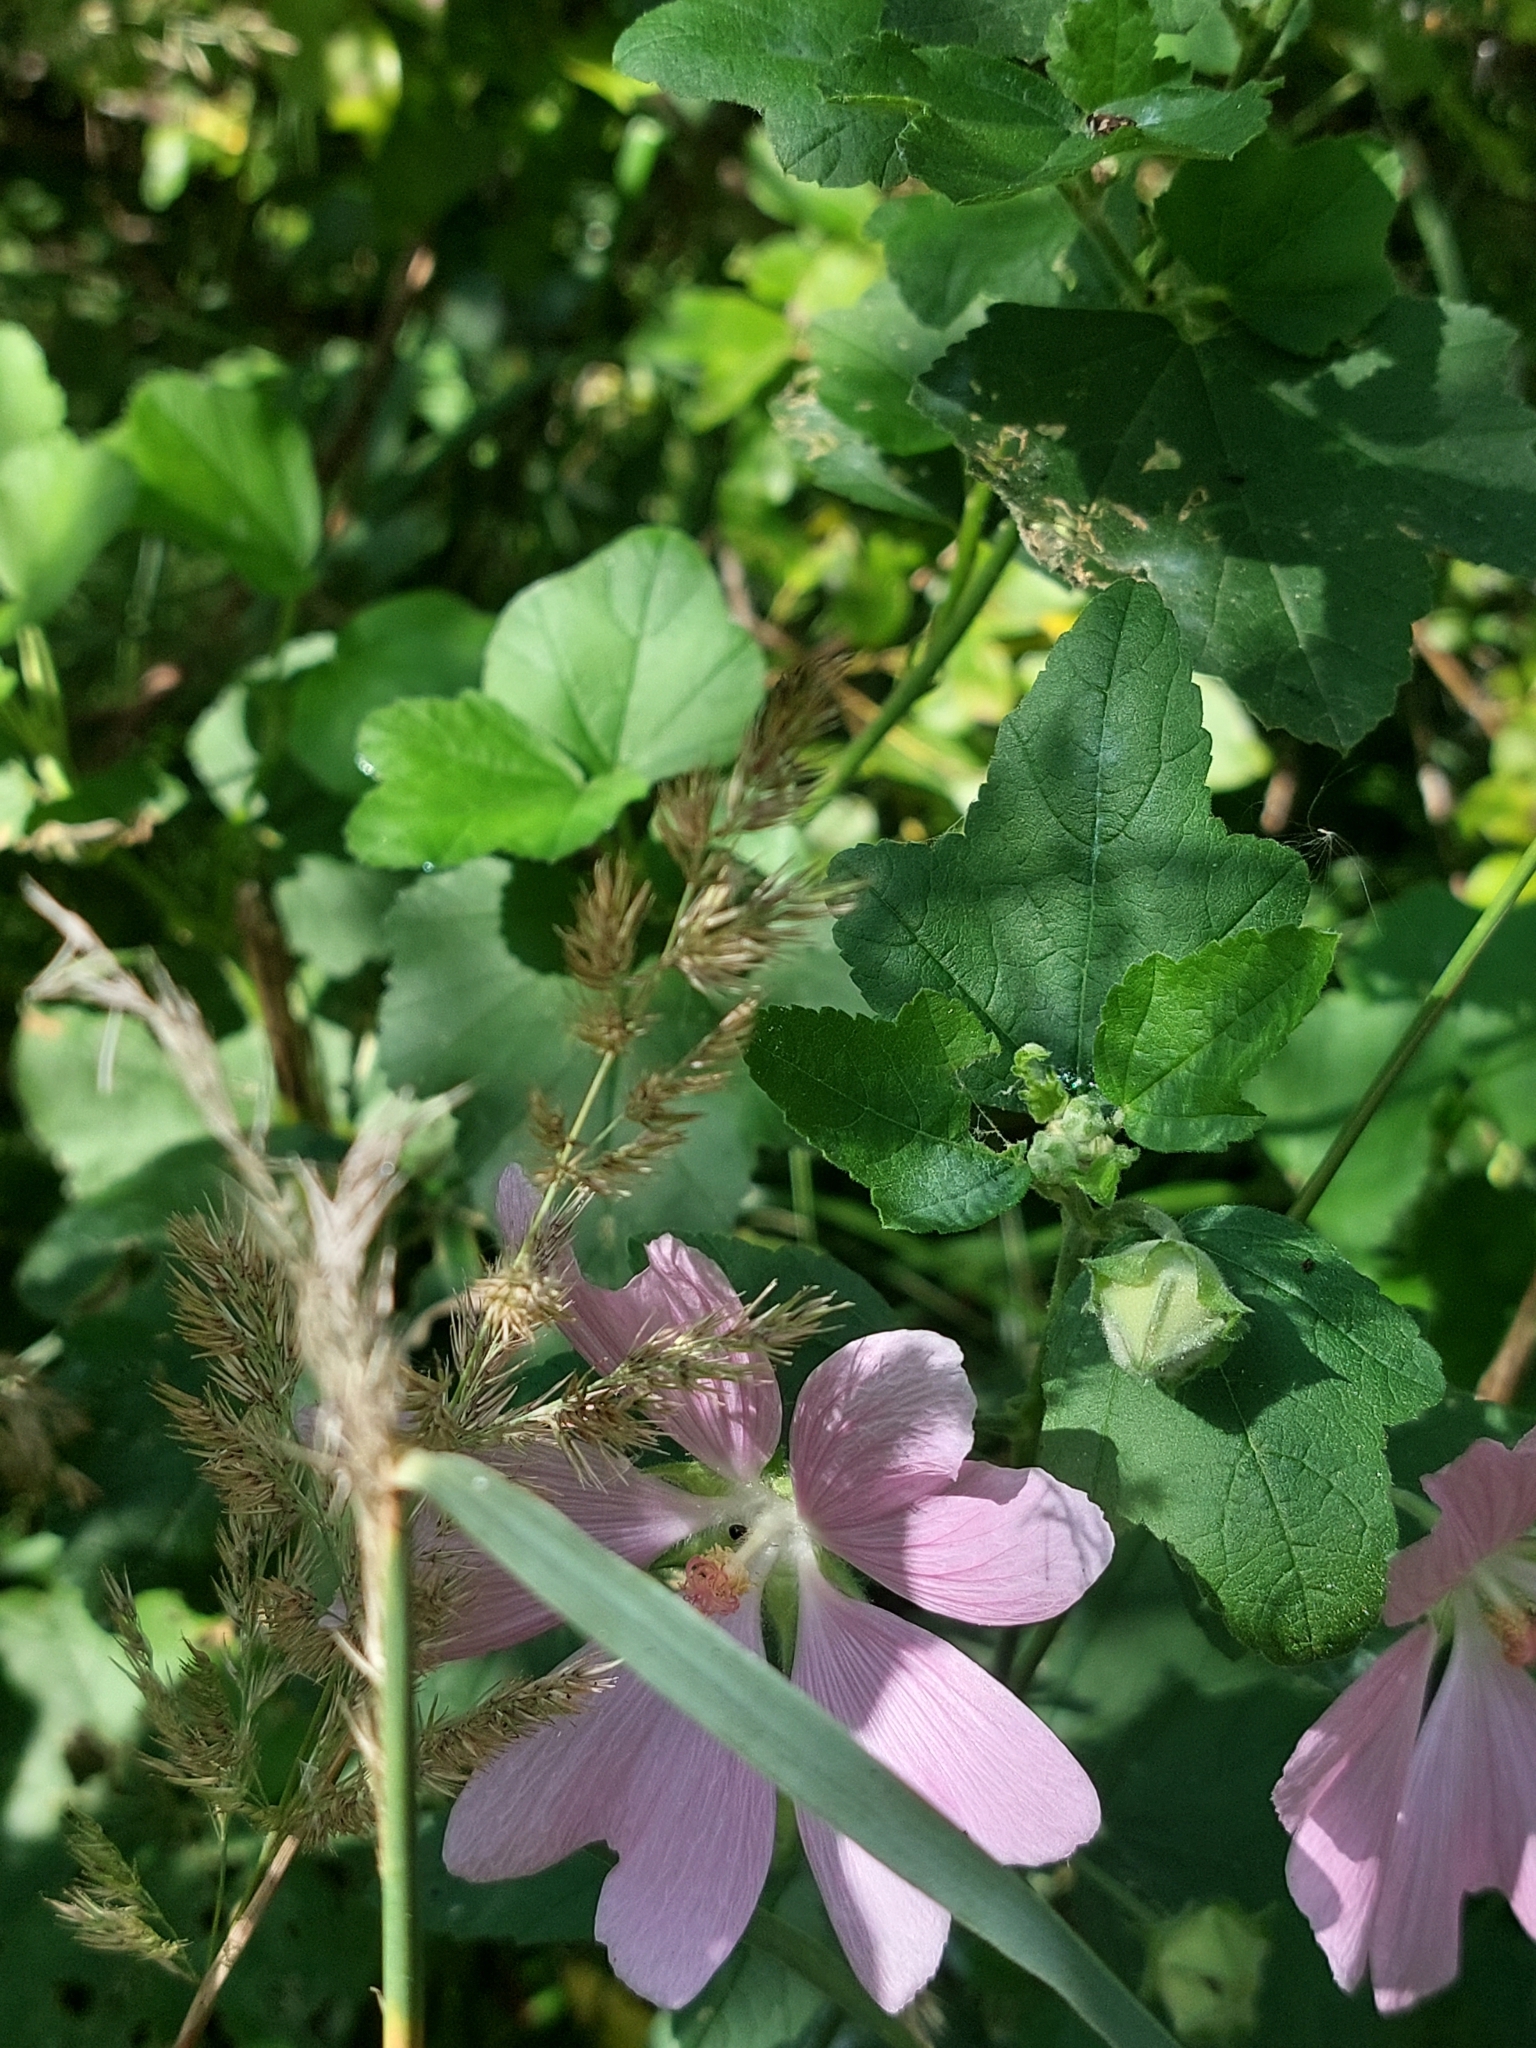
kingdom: Plantae
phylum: Tracheophyta
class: Magnoliopsida
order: Malvales
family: Malvaceae
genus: Malva
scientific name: Malva thuringiaca
